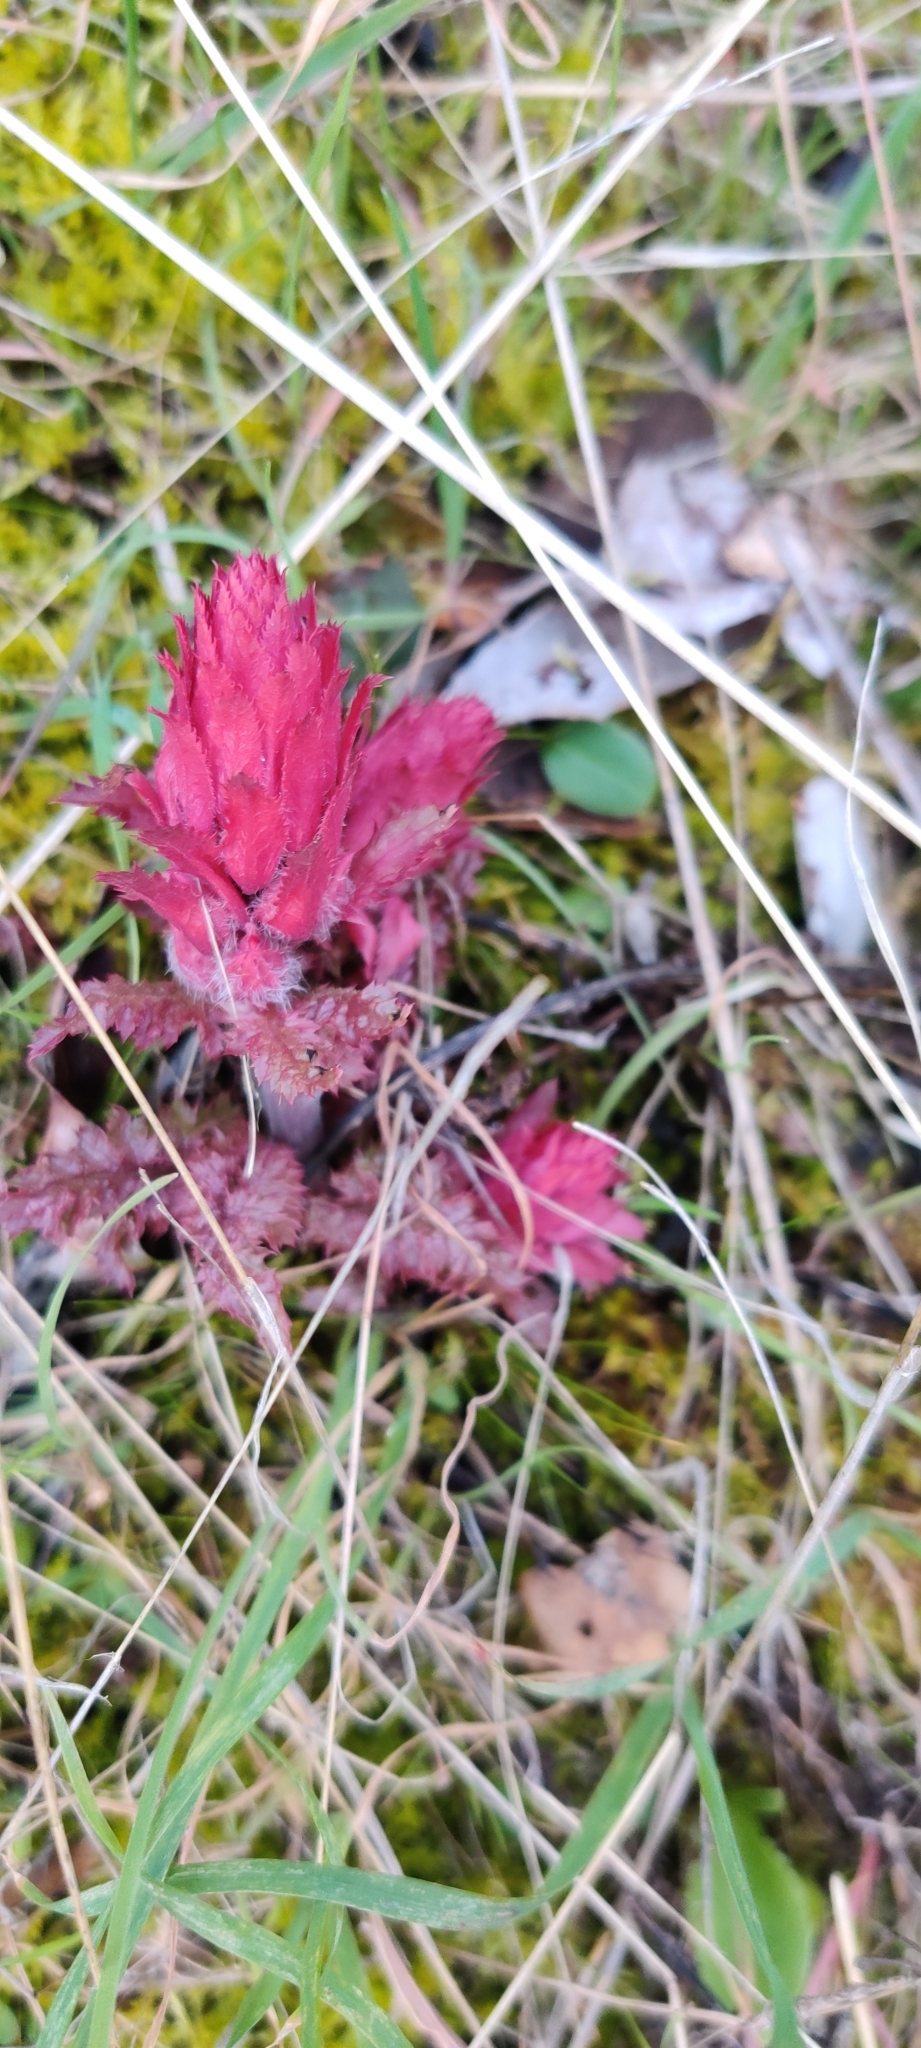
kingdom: Plantae
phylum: Tracheophyta
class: Magnoliopsida
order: Lamiales
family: Orobanchaceae
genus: Pedicularis
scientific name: Pedicularis densiflora
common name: Indian warrior
